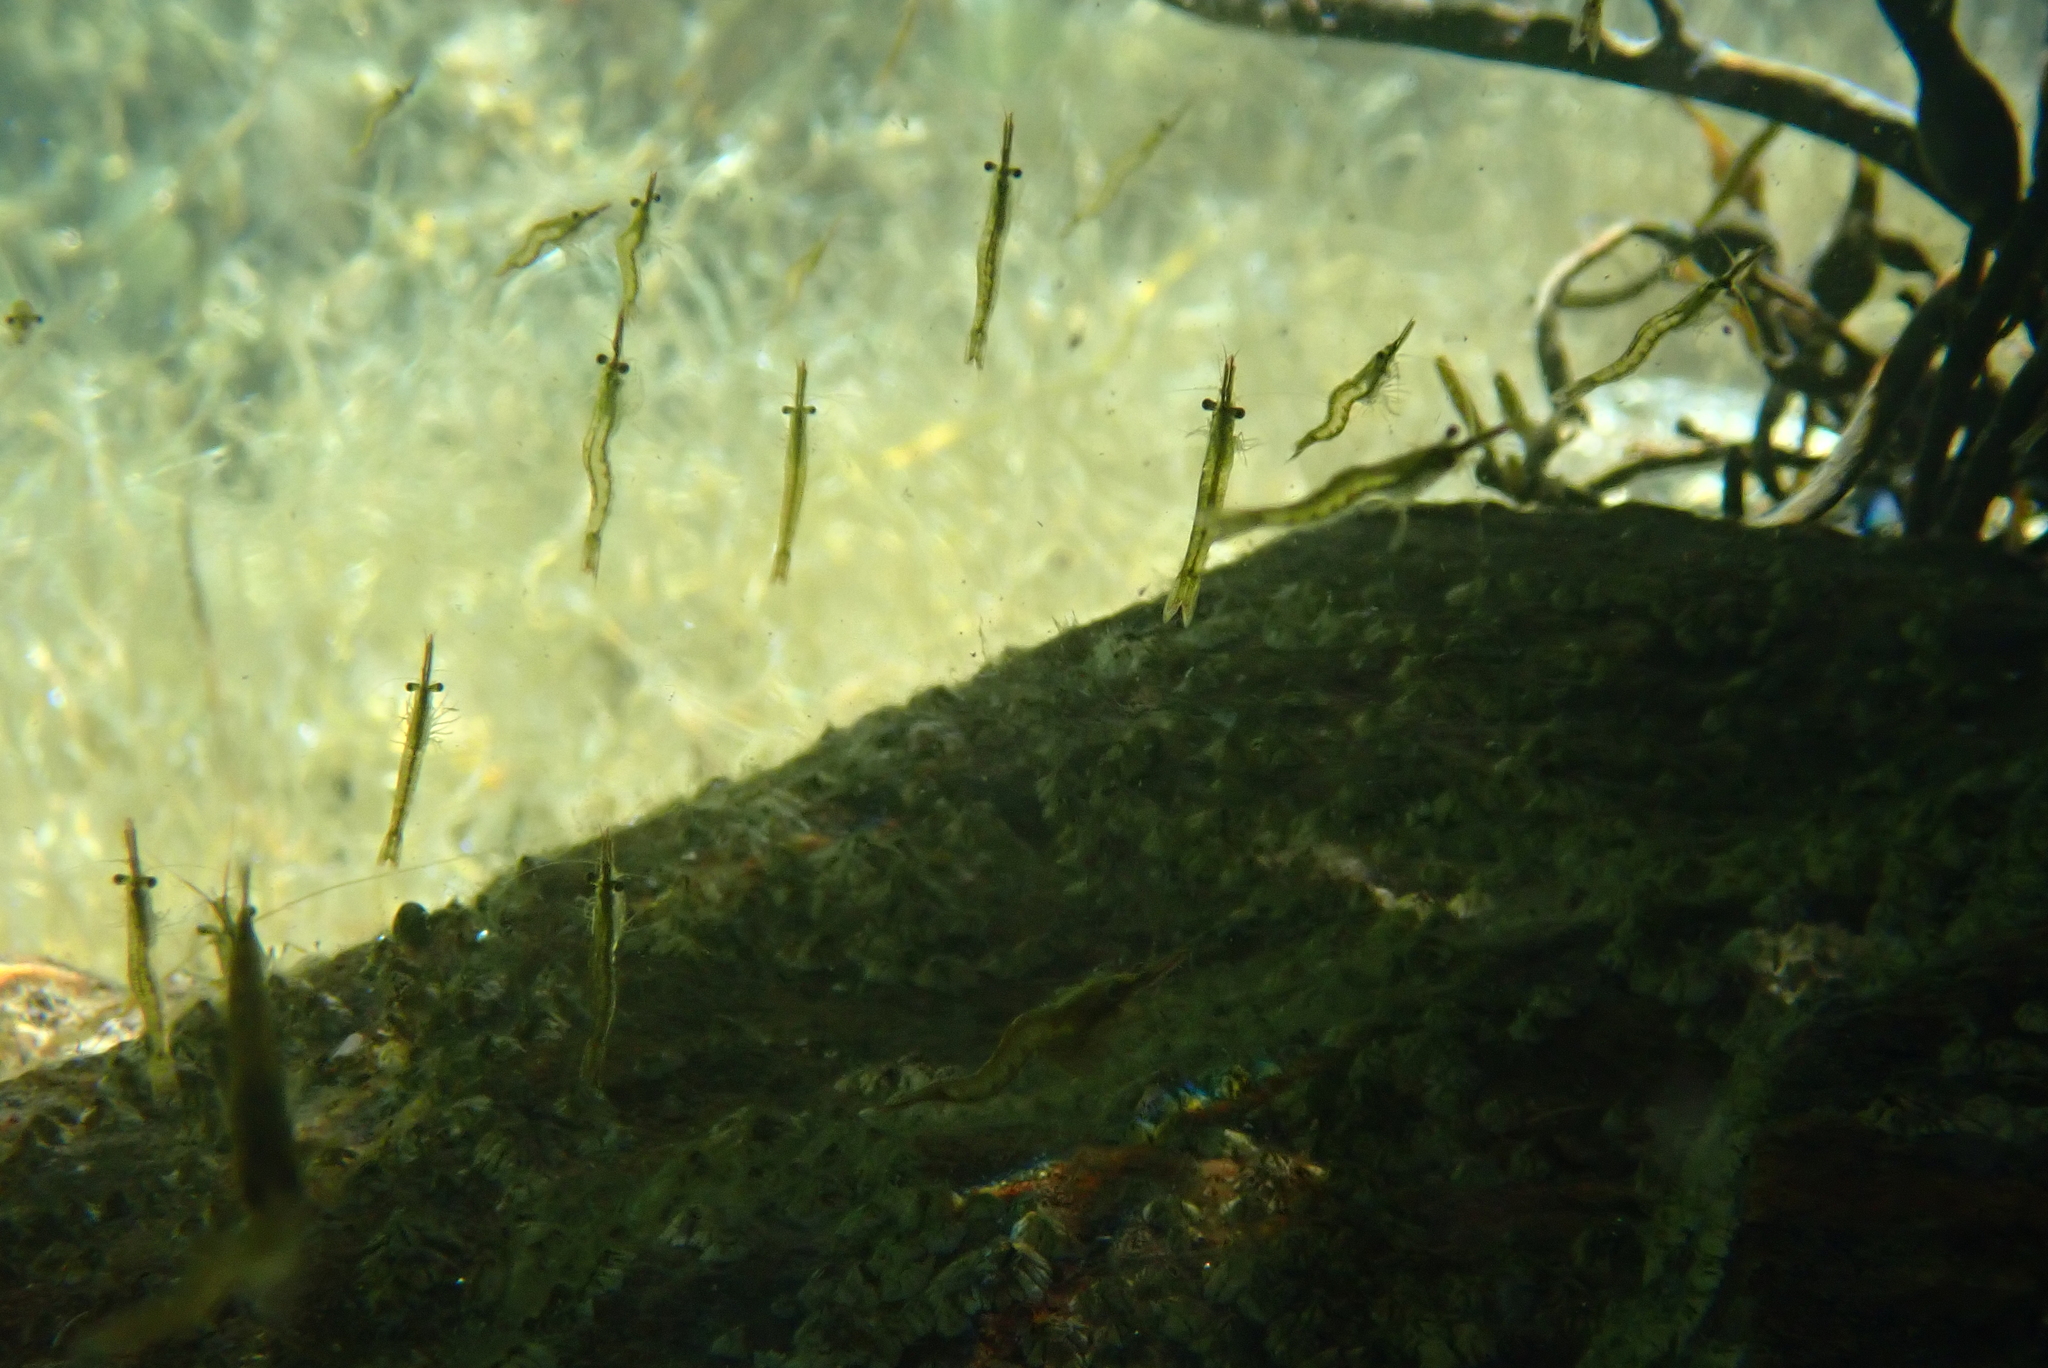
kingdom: Animalia
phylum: Arthropoda
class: Malacostraca
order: Mysida
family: Mysidae
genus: Praunus
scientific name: Praunus flexuosus
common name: Chameleon shrimp
